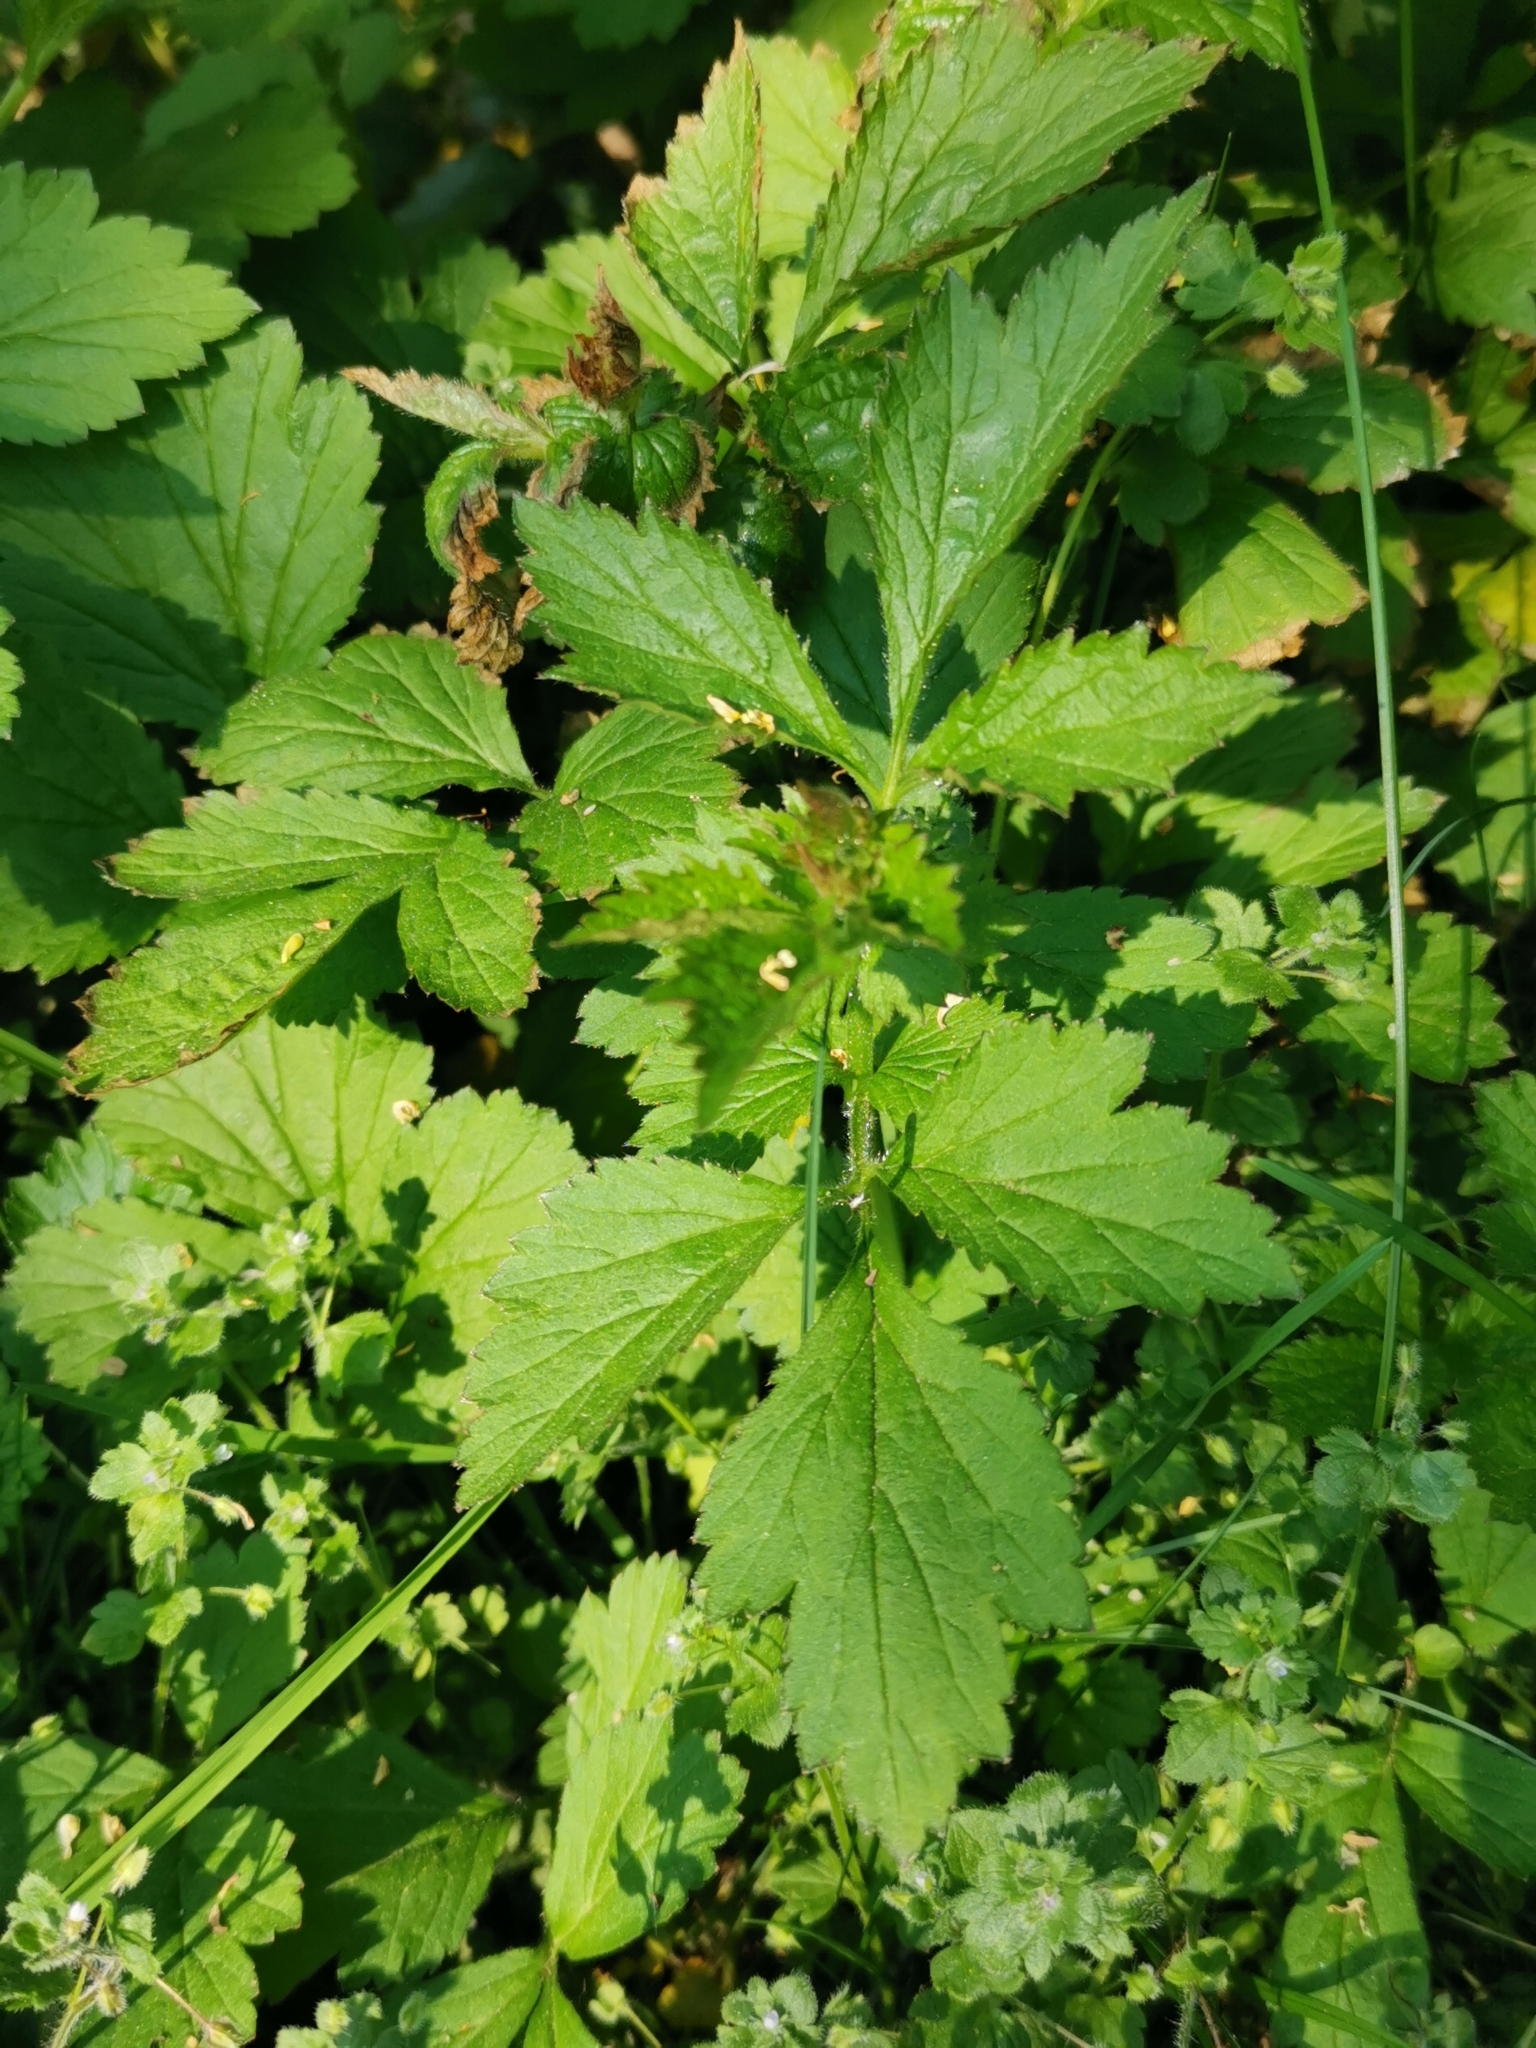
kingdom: Plantae
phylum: Tracheophyta
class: Magnoliopsida
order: Rosales
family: Rosaceae
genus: Geum
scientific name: Geum urbanum
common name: Wood avens
